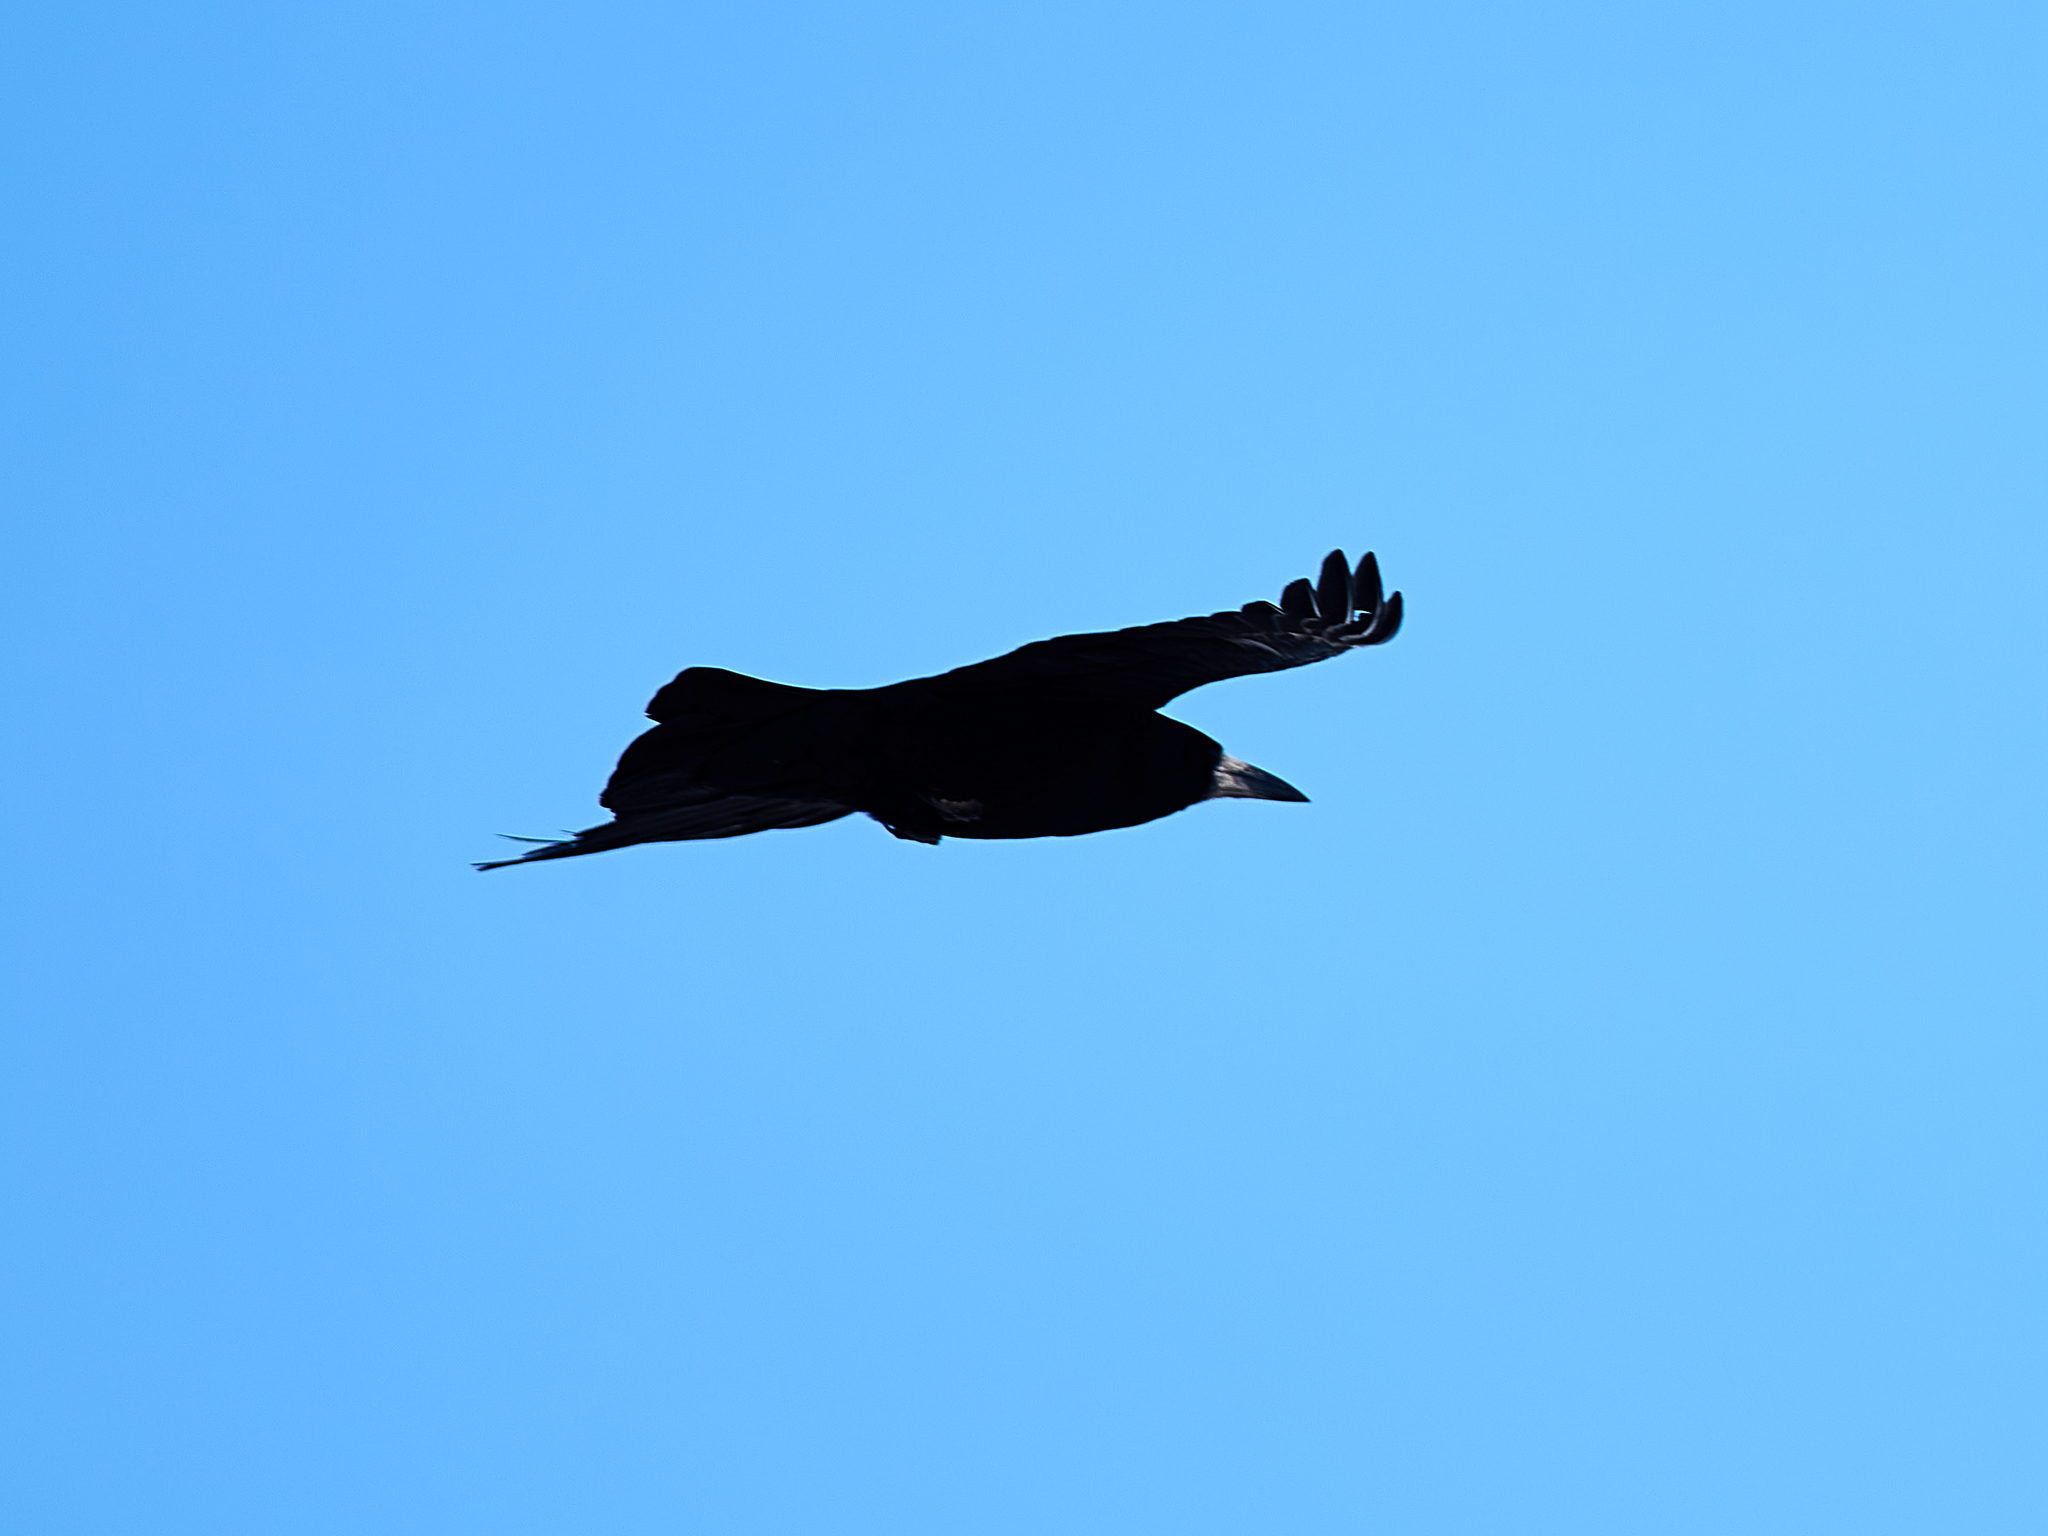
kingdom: Animalia
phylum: Chordata
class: Aves
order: Passeriformes
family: Corvidae
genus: Corvus
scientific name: Corvus frugilegus
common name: Rook
